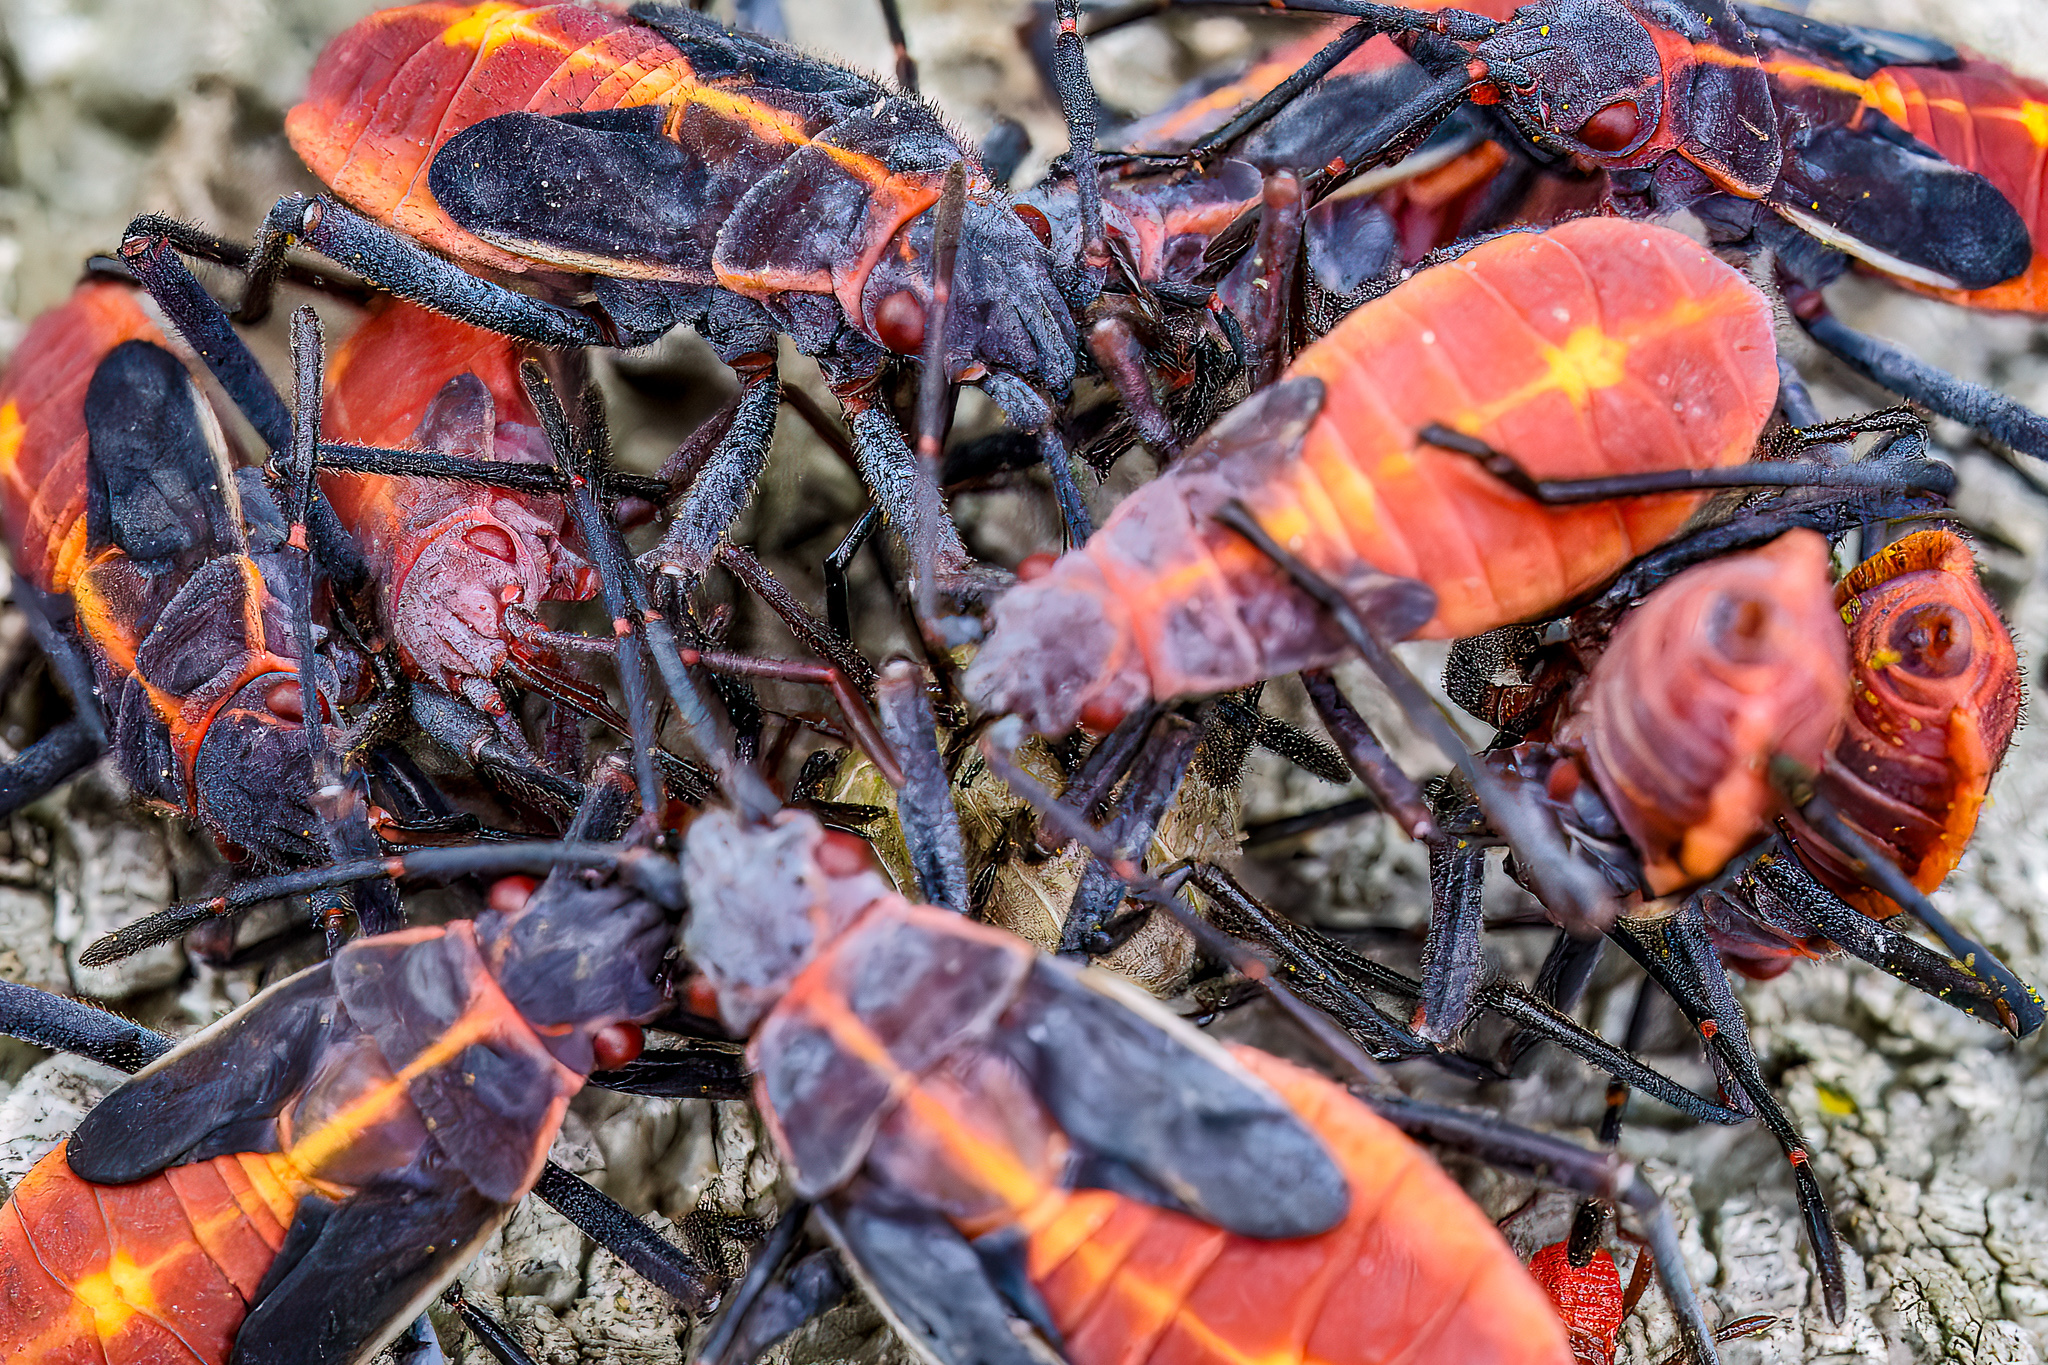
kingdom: Animalia
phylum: Arthropoda
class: Insecta
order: Hemiptera
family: Rhopalidae
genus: Boisea
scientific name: Boisea trivittata
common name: Boxelder bug
